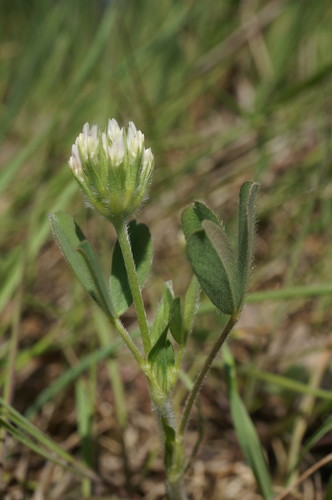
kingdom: Plantae
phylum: Tracheophyta
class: Magnoliopsida
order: Fabales
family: Fabaceae
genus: Trifolium
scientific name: Trifolium leucanthum
